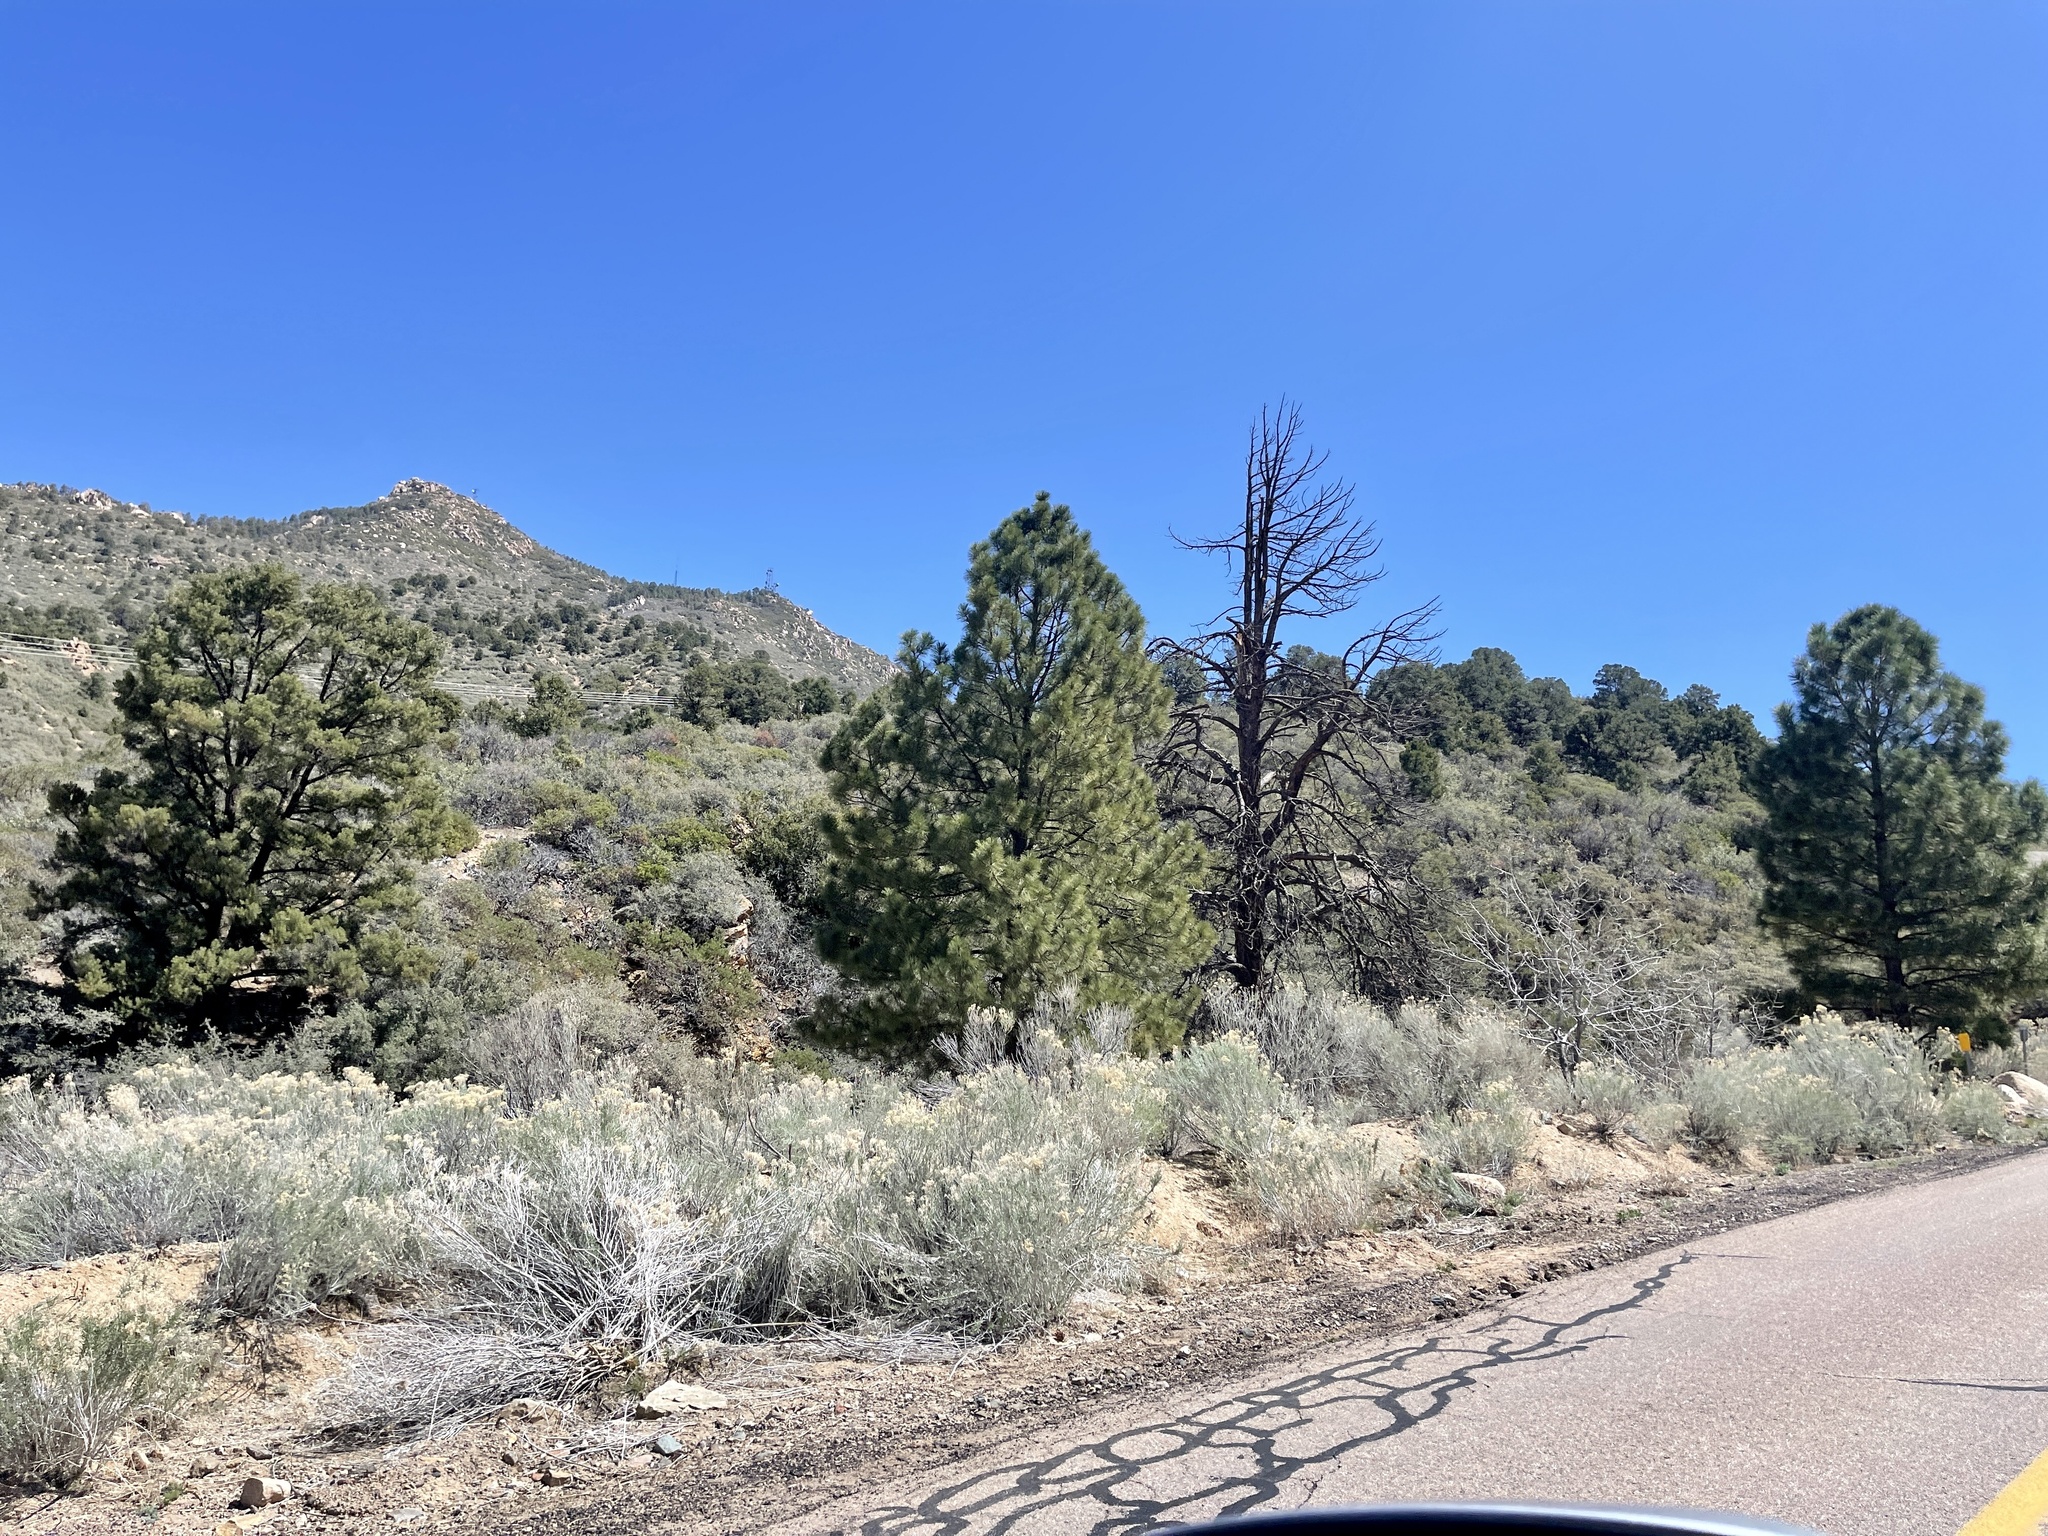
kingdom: Plantae
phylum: Tracheophyta
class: Pinopsida
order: Pinales
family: Pinaceae
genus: Pinus
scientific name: Pinus ponderosa
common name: Western yellow-pine
